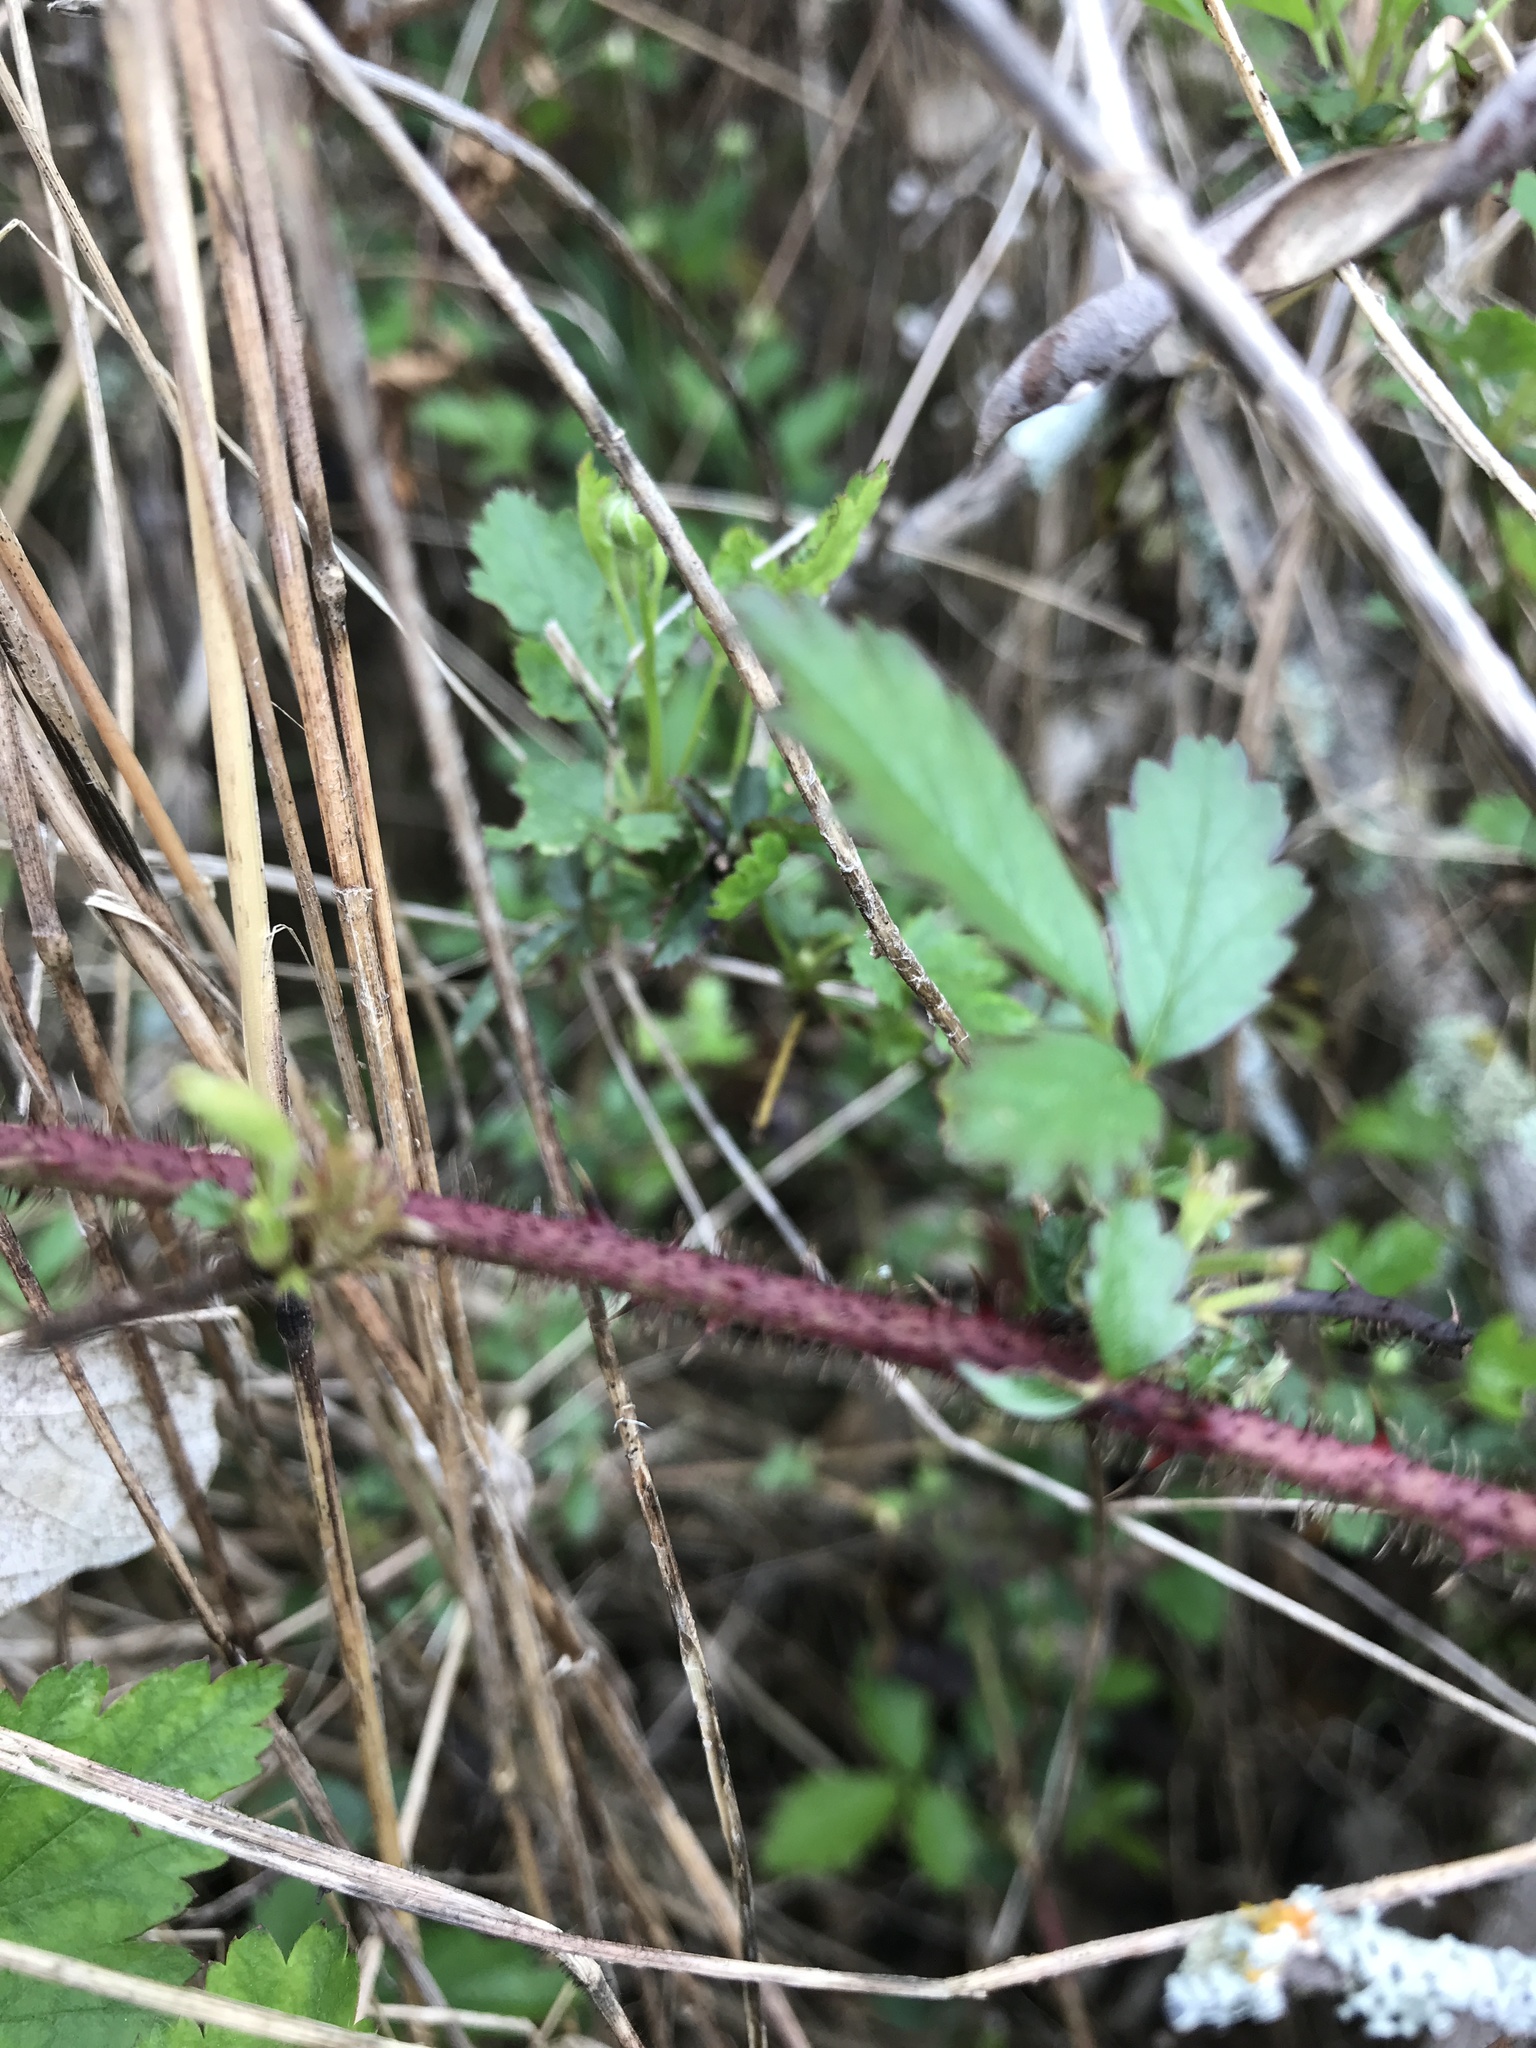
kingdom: Plantae
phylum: Tracheophyta
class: Magnoliopsida
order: Rosales
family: Rosaceae
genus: Rubus
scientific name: Rubus trivialis
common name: Southern dewberry
